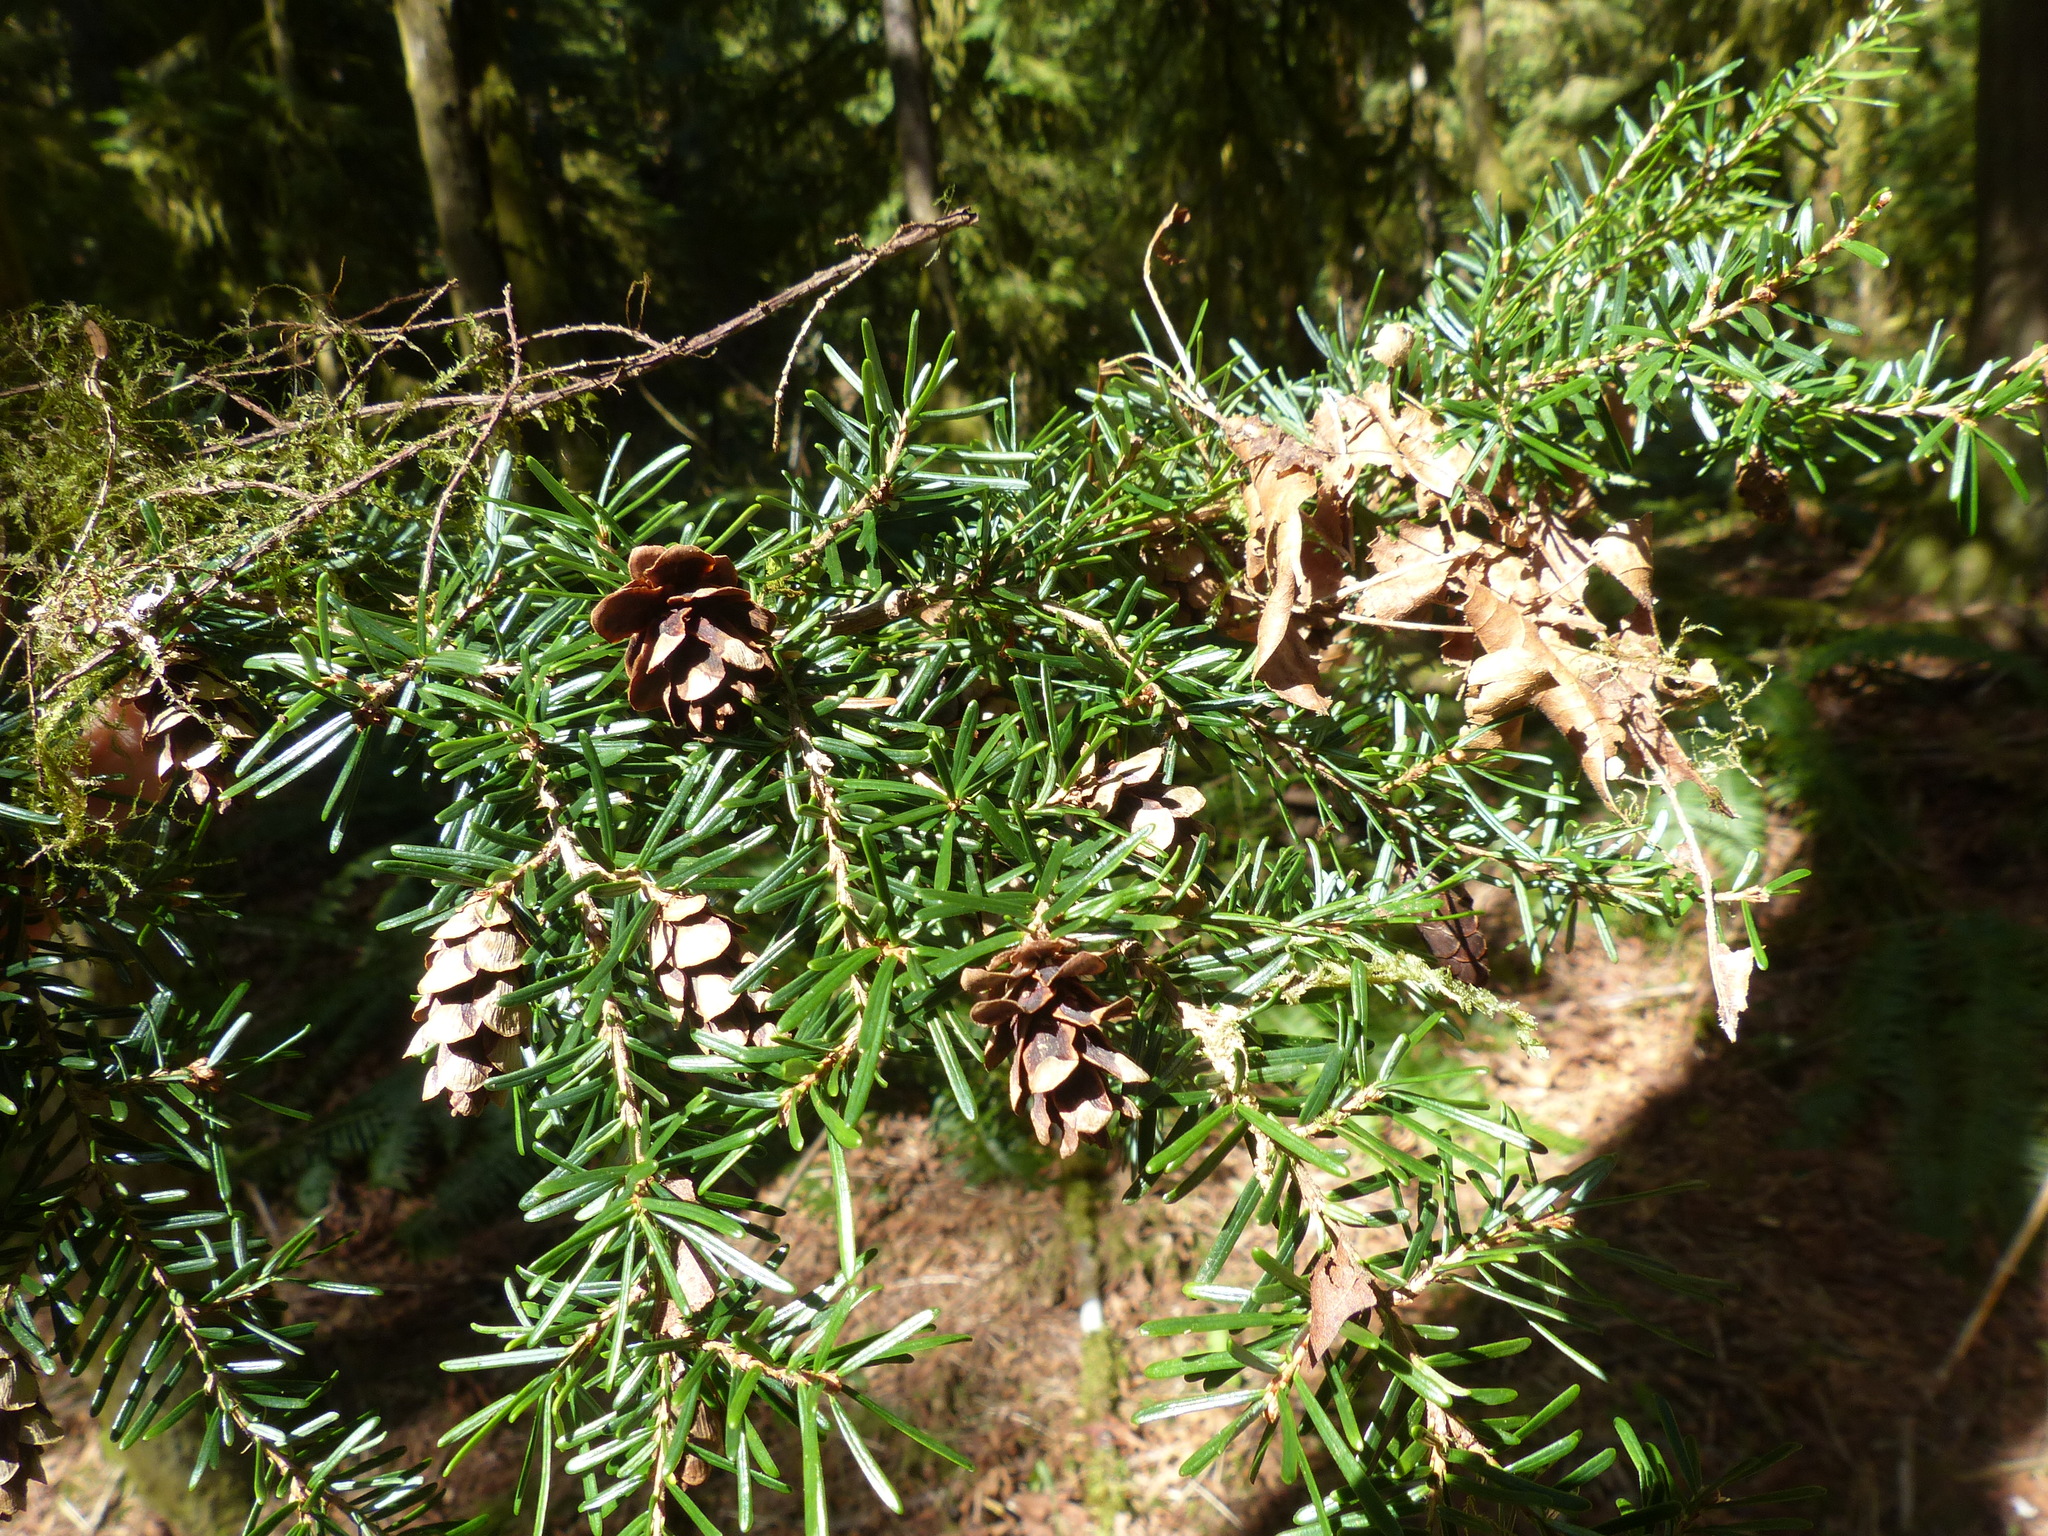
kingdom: Plantae
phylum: Tracheophyta
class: Pinopsida
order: Pinales
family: Pinaceae
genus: Tsuga
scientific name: Tsuga heterophylla
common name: Western hemlock
